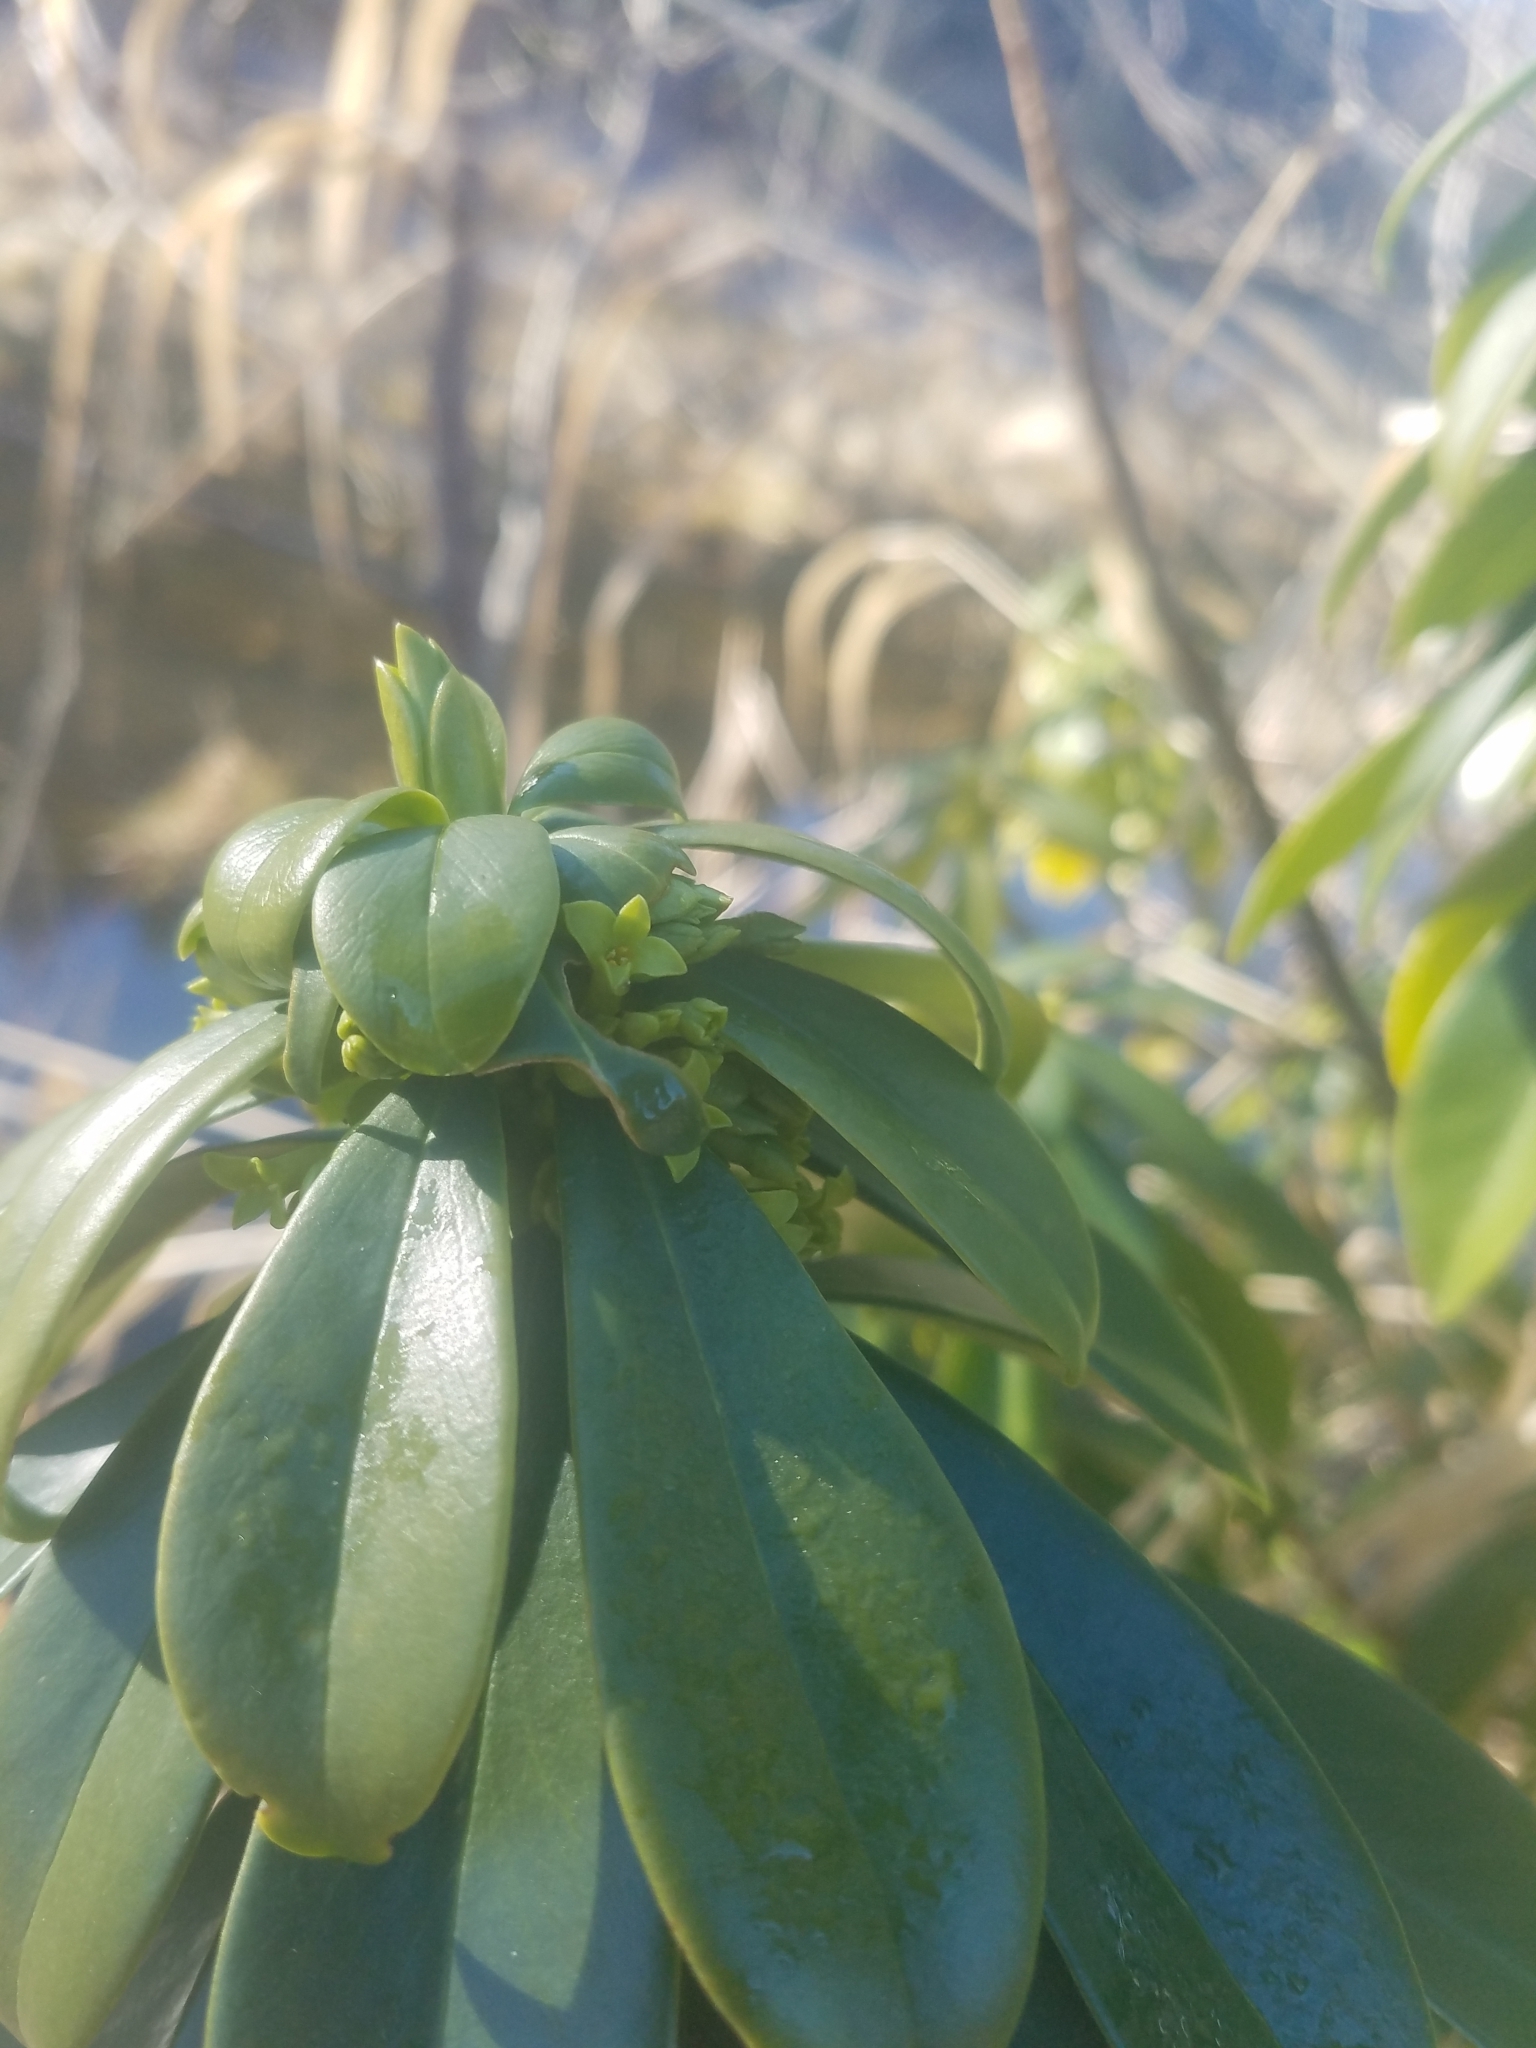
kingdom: Plantae
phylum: Tracheophyta
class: Magnoliopsida
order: Malvales
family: Thymelaeaceae
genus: Daphne
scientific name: Daphne laureola
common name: Spurge-laurel
